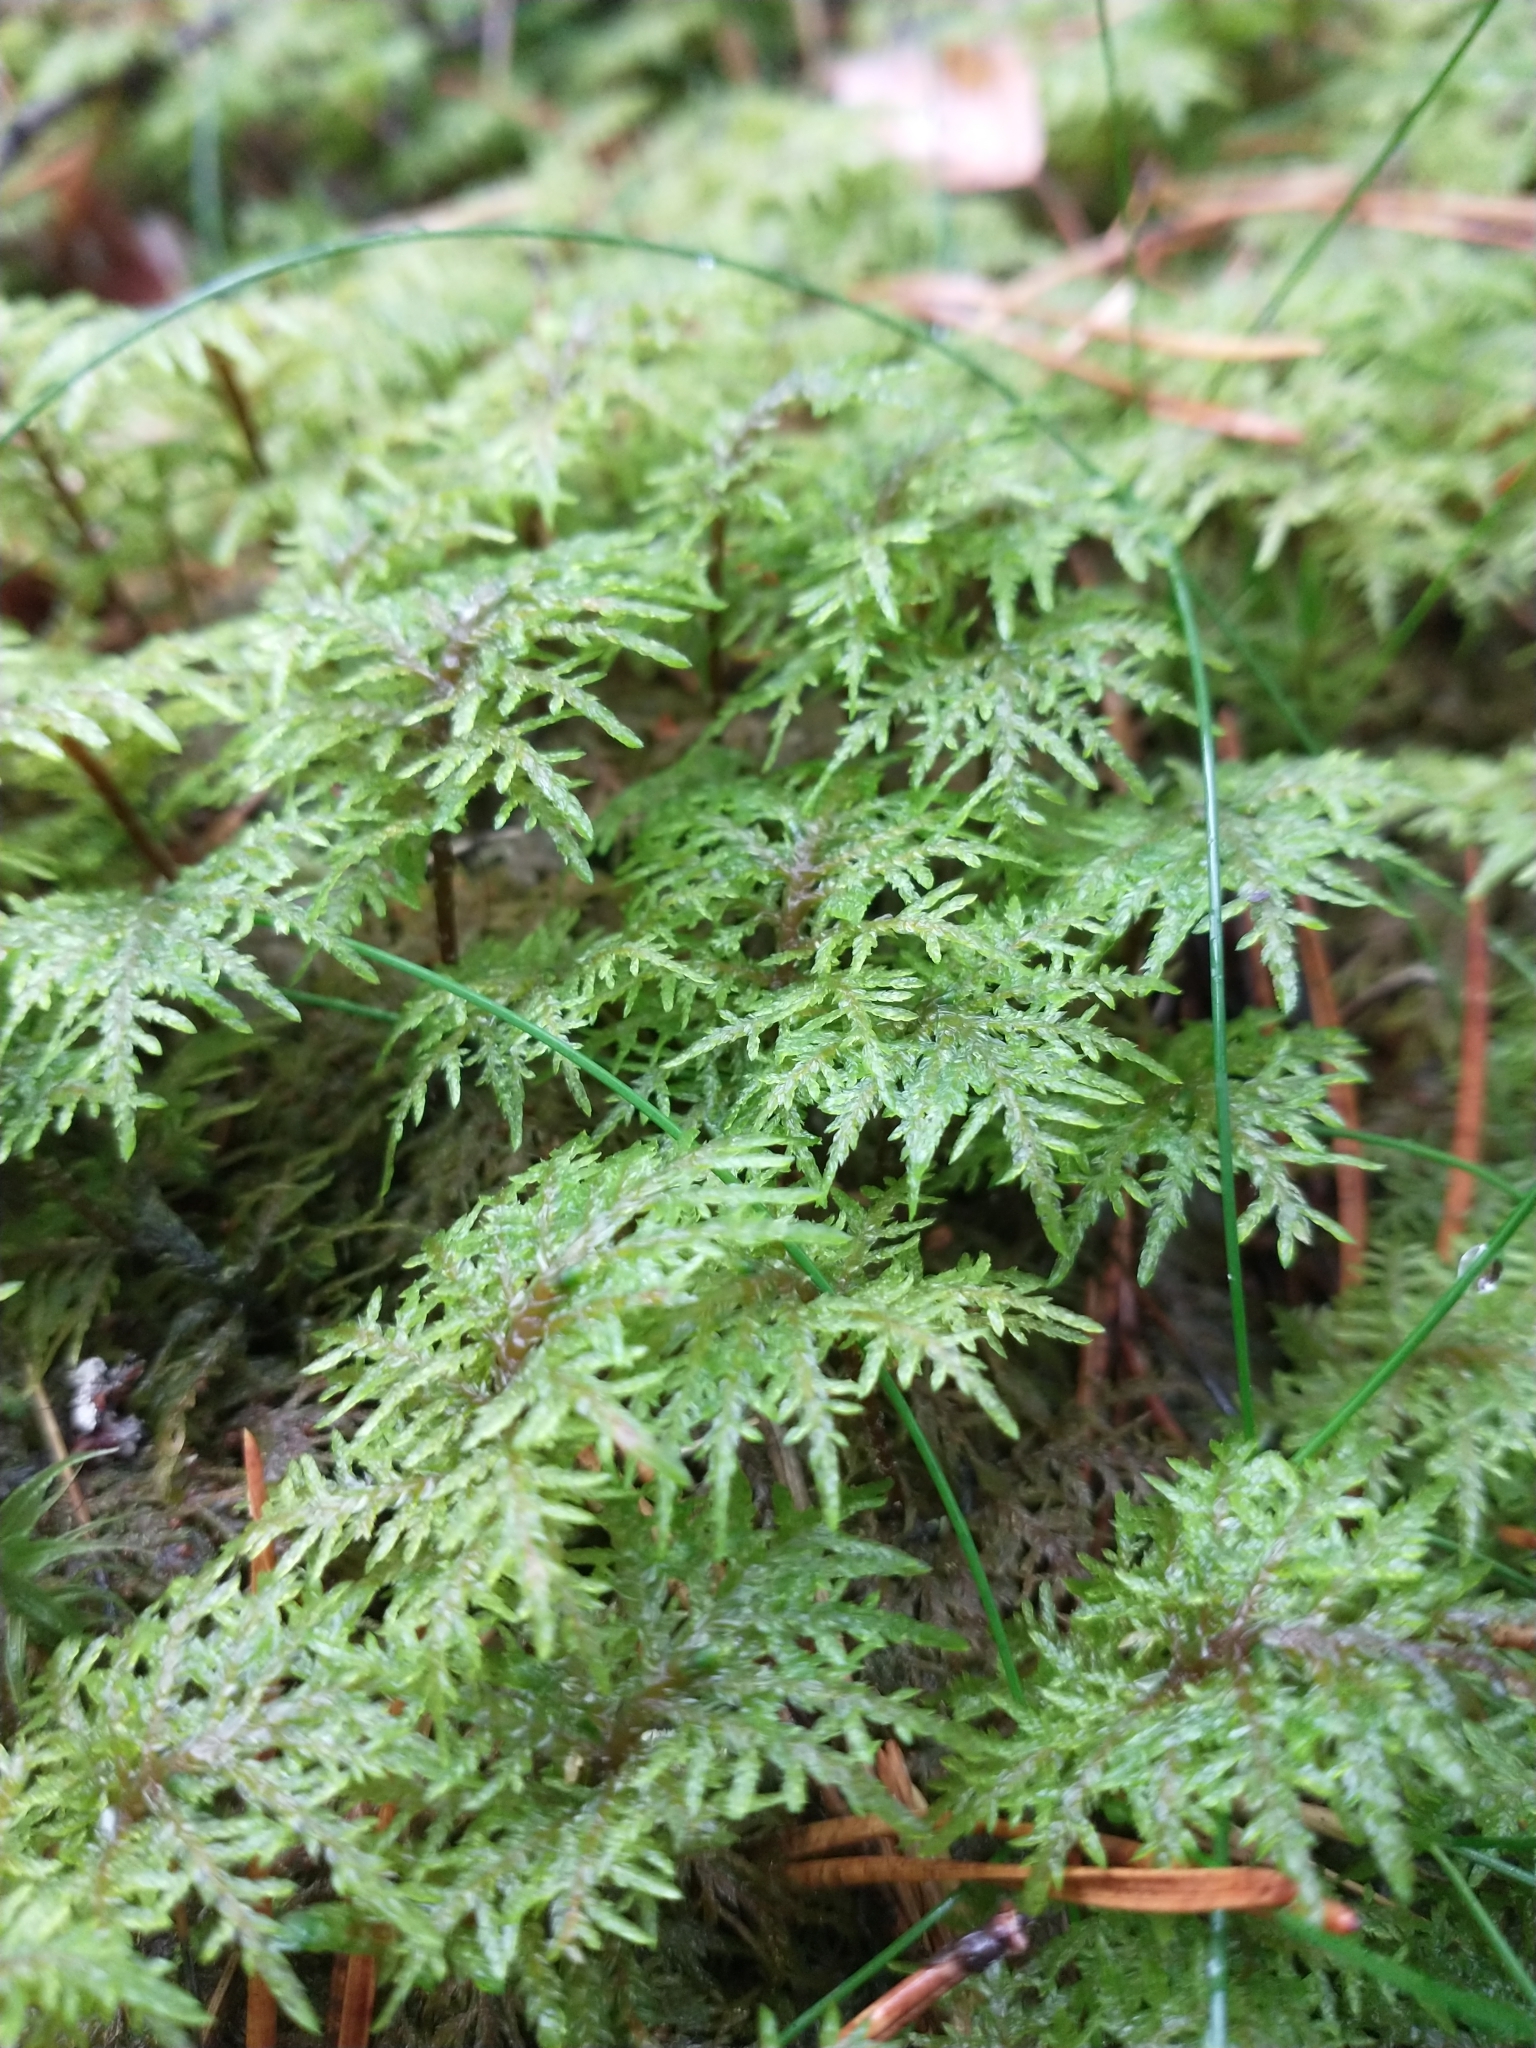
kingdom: Plantae
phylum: Bryophyta
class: Bryopsida
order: Hypnales
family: Hylocomiaceae
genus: Hylocomium
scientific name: Hylocomium splendens
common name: Stairstep moss
